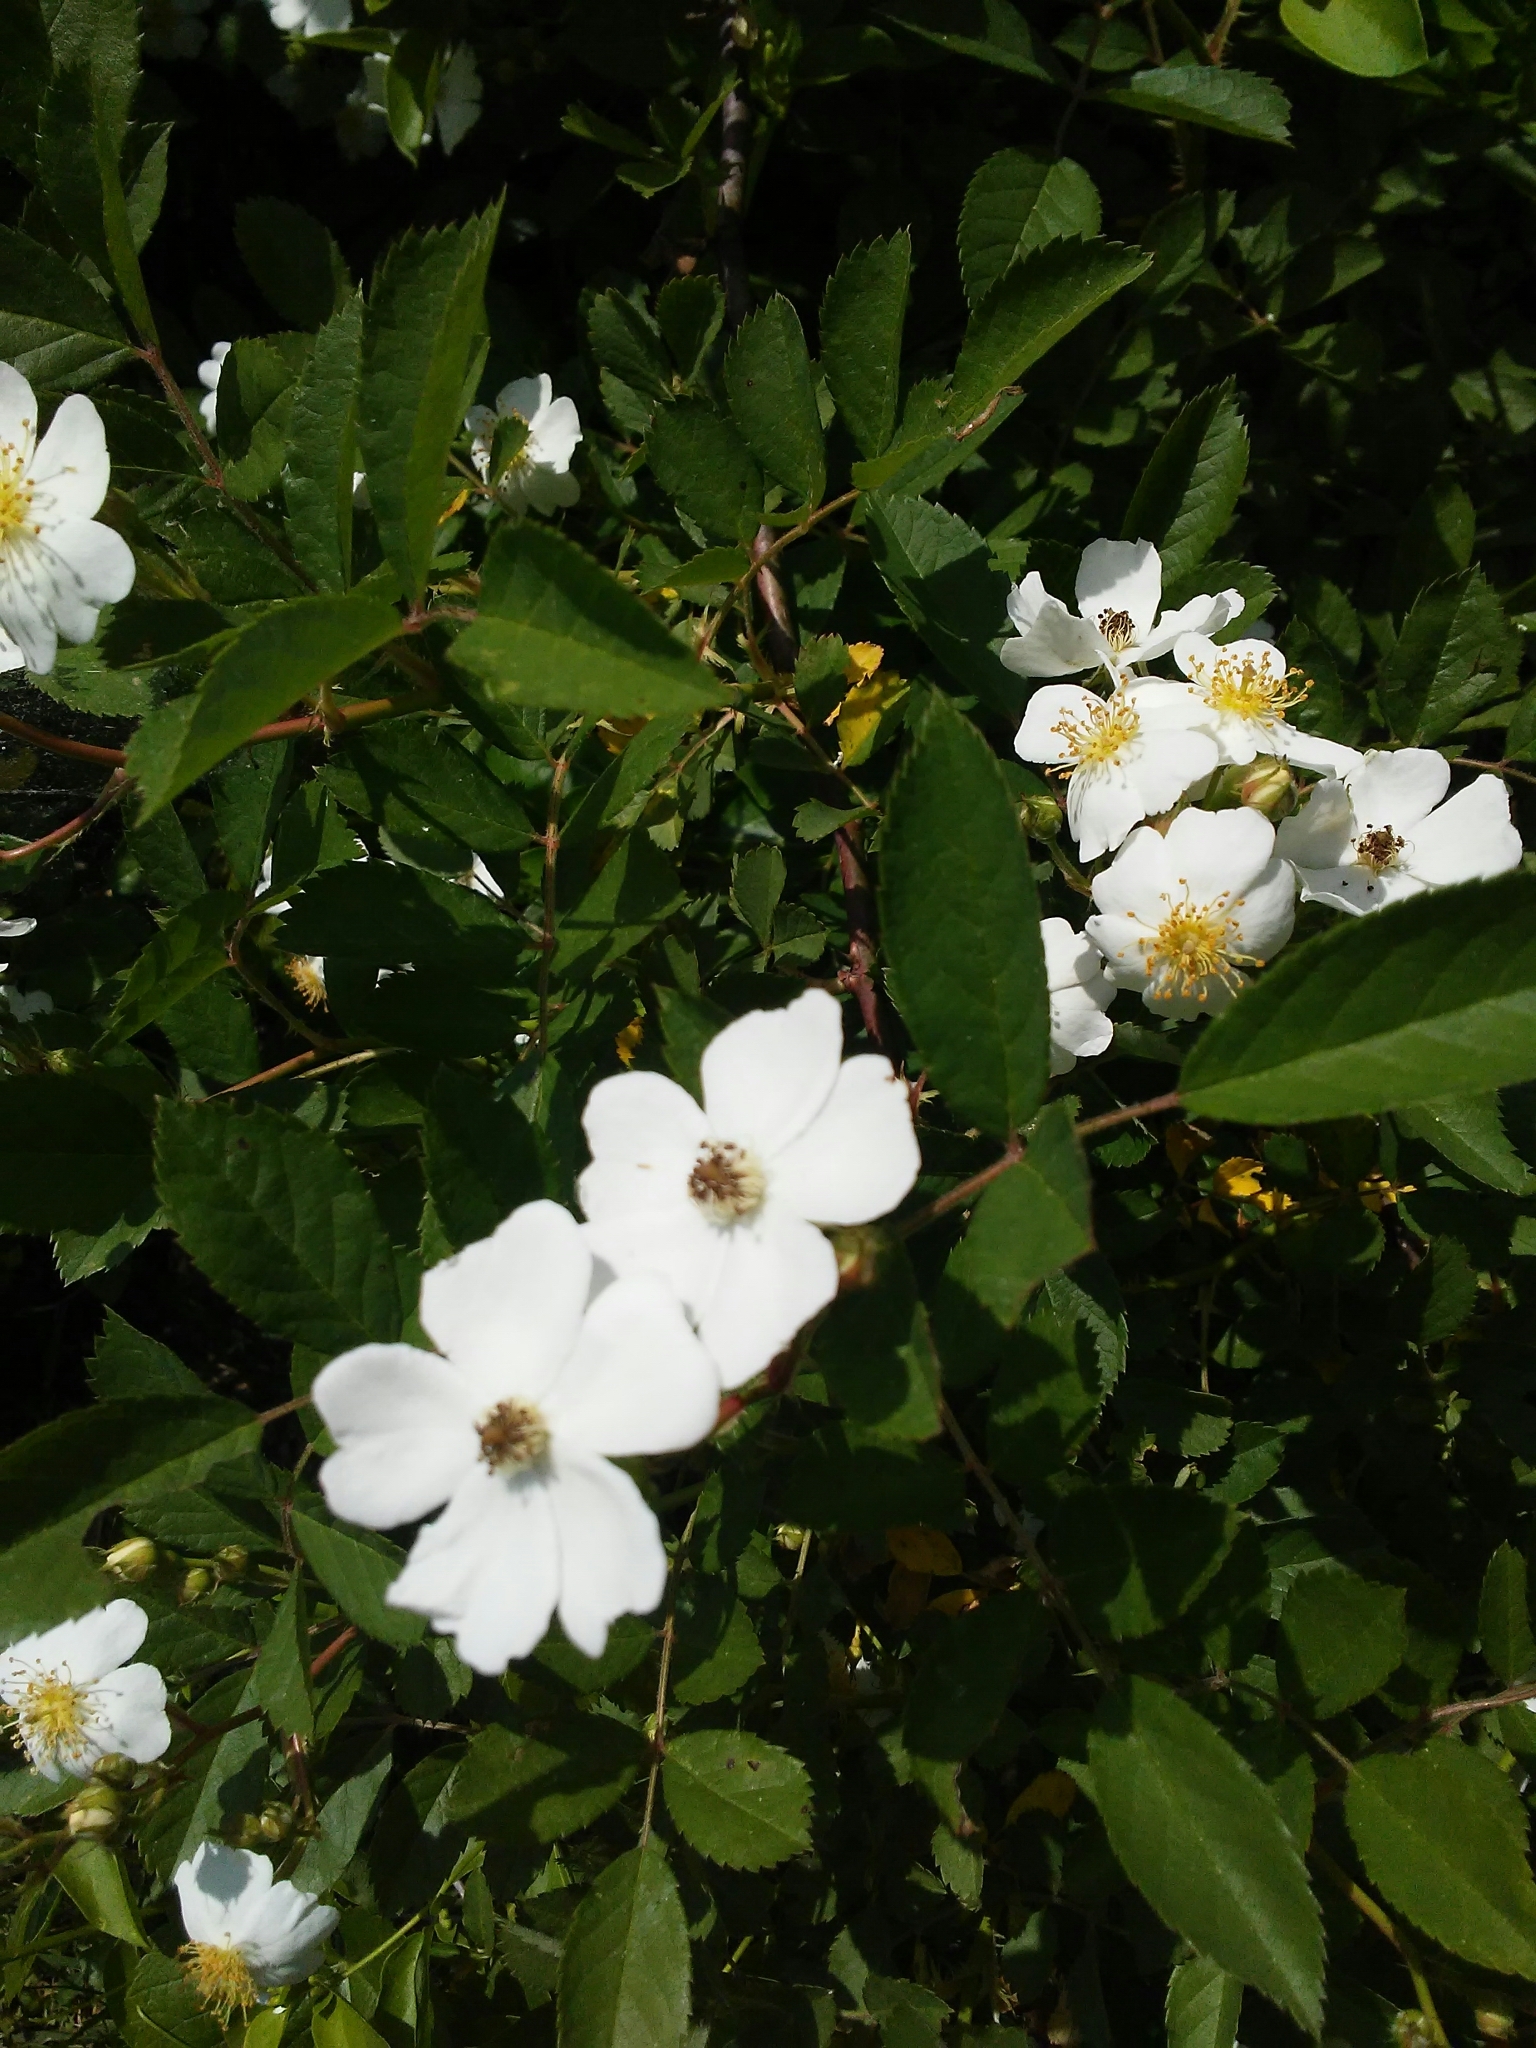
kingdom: Plantae
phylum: Tracheophyta
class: Magnoliopsida
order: Rosales
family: Rosaceae
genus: Rosa
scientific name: Rosa multiflora
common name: Multiflora rose
